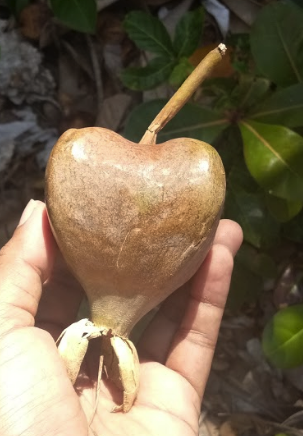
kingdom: Plantae
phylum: Tracheophyta
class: Magnoliopsida
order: Ericales
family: Lecythidaceae
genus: Barringtonia
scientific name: Barringtonia asiatica
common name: Mango-pine
